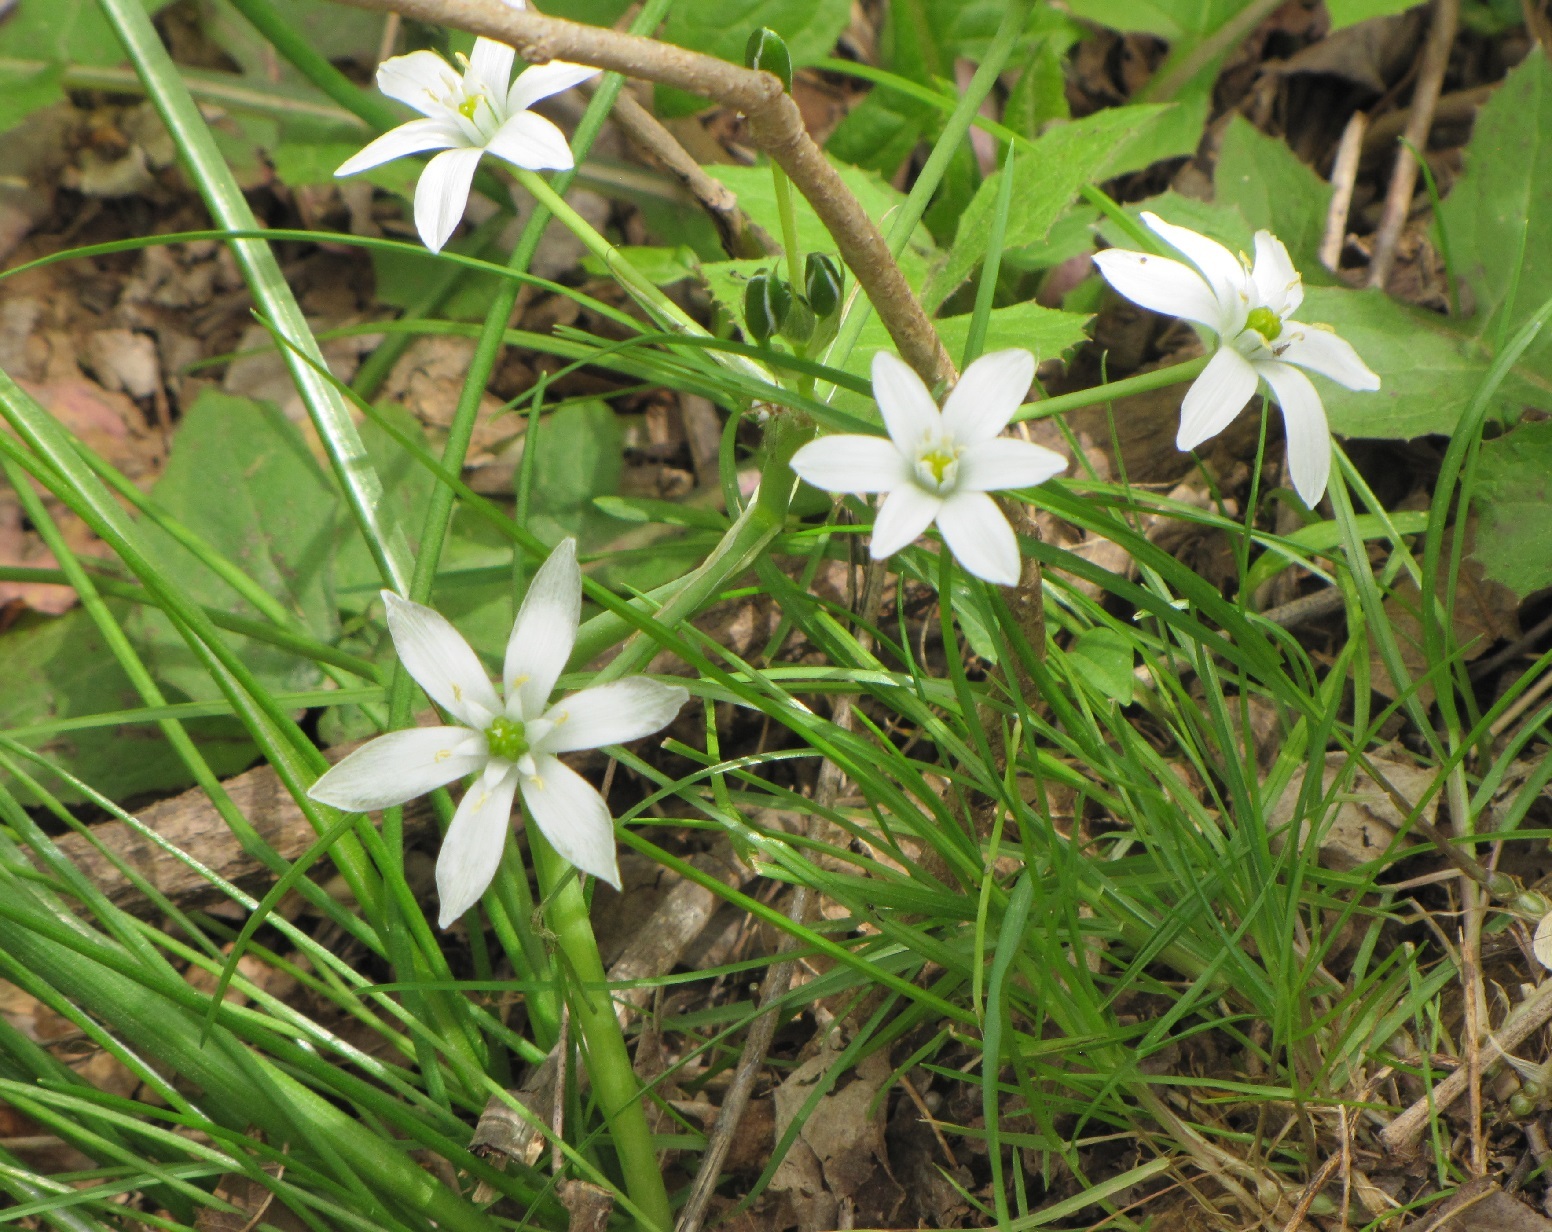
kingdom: Plantae
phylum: Tracheophyta
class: Liliopsida
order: Asparagales
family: Asparagaceae
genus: Ornithogalum
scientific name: Ornithogalum umbellatum
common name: Garden star-of-bethlehem
